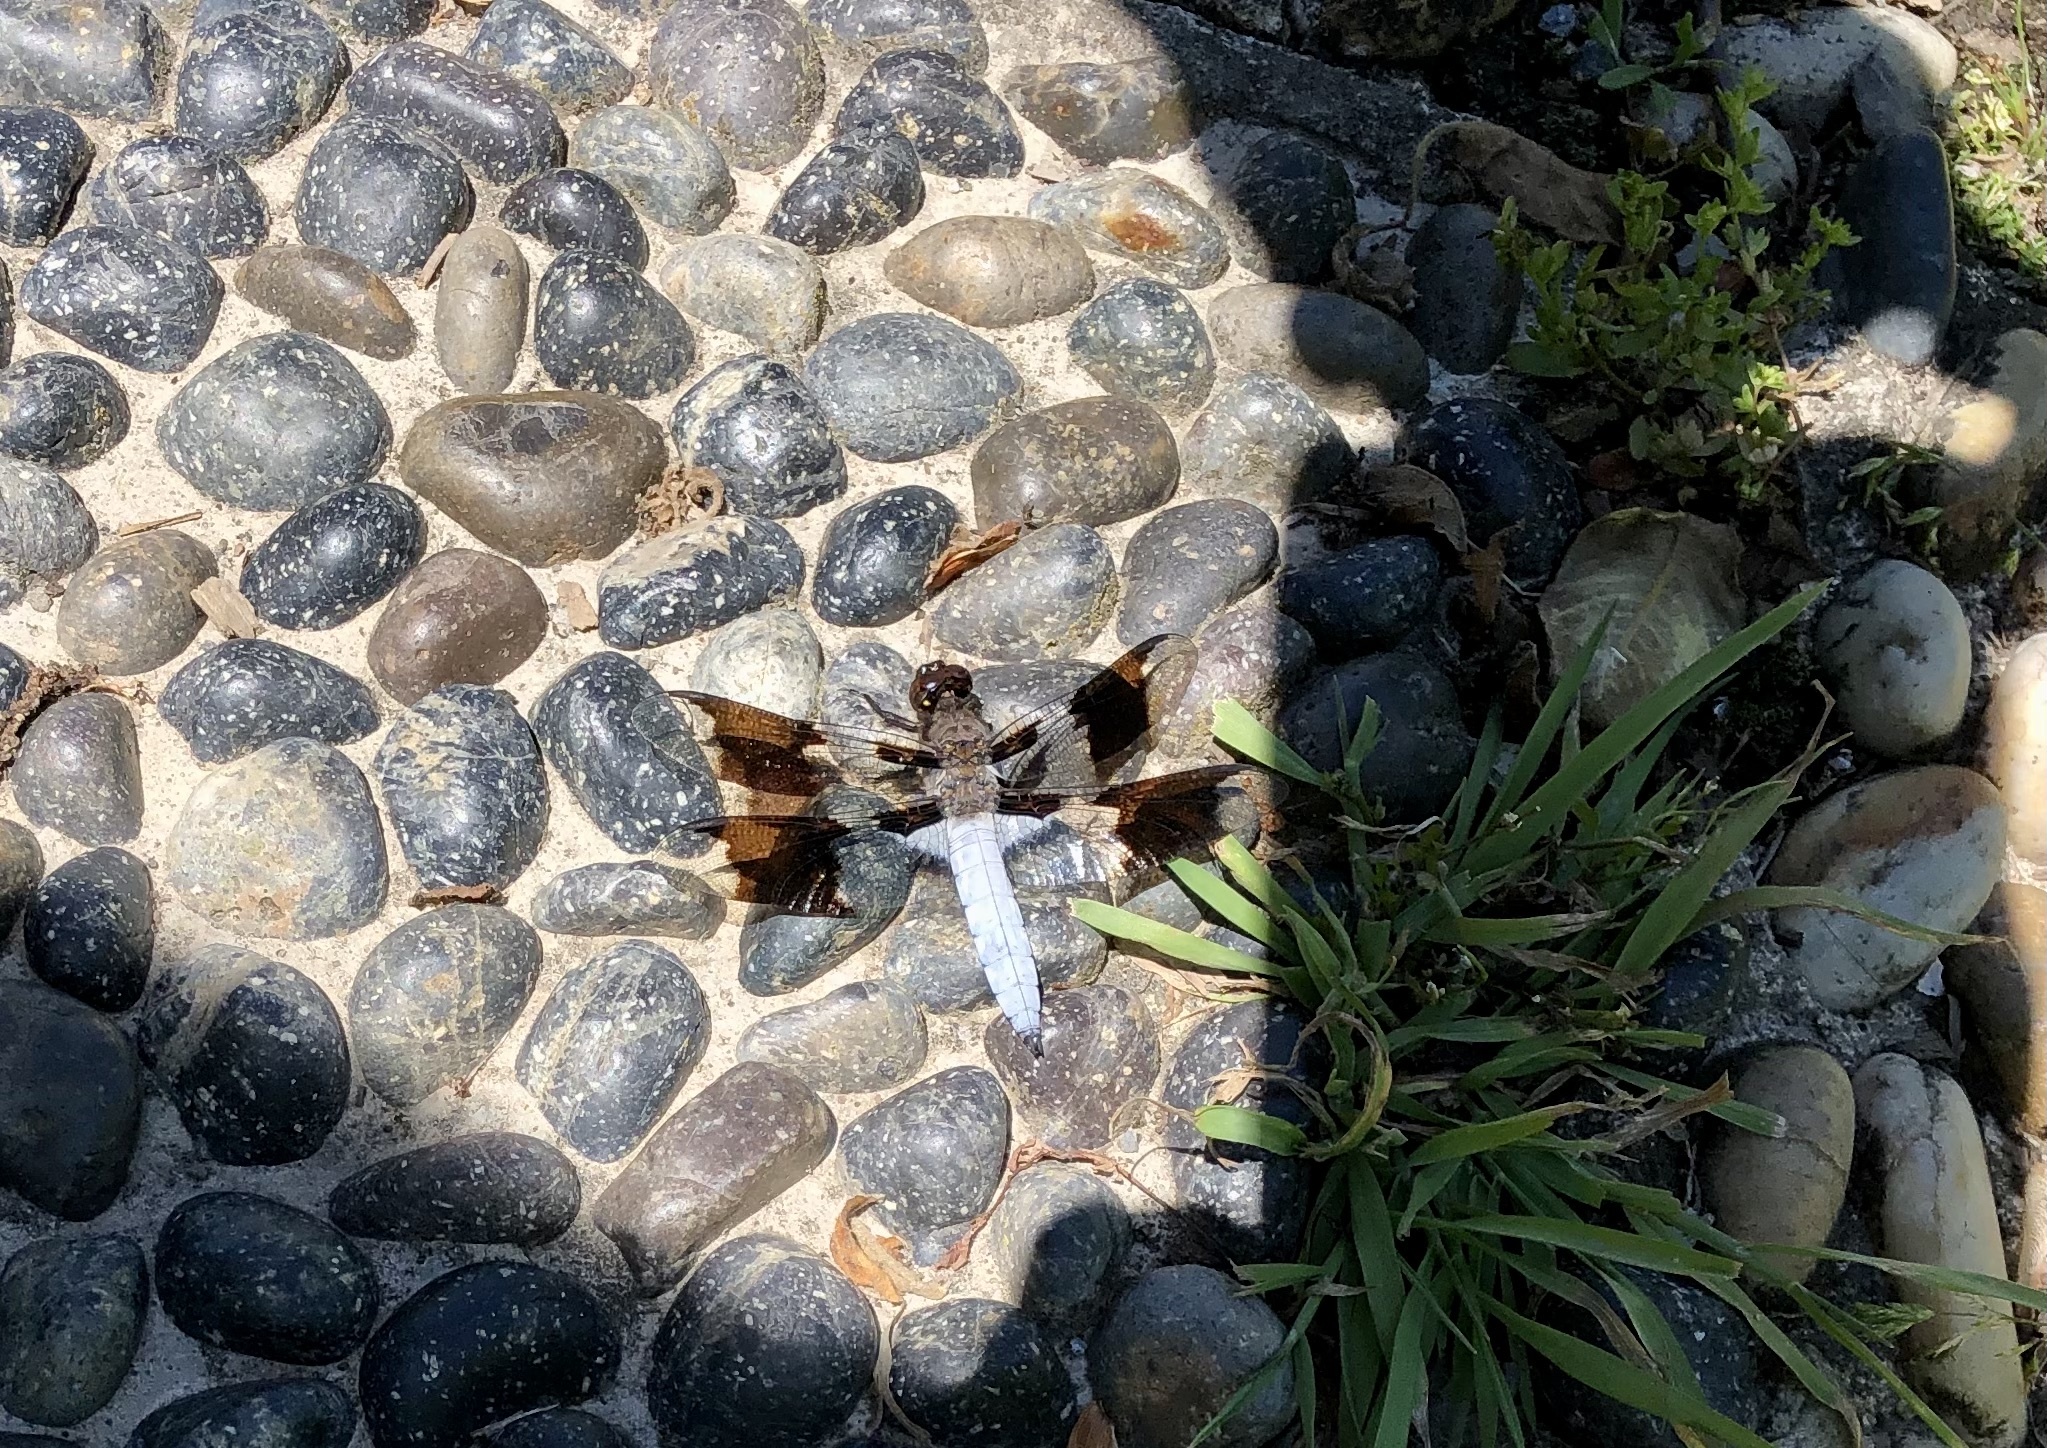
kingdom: Animalia
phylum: Arthropoda
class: Insecta
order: Odonata
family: Libellulidae
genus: Plathemis
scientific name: Plathemis lydia
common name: Common whitetail
